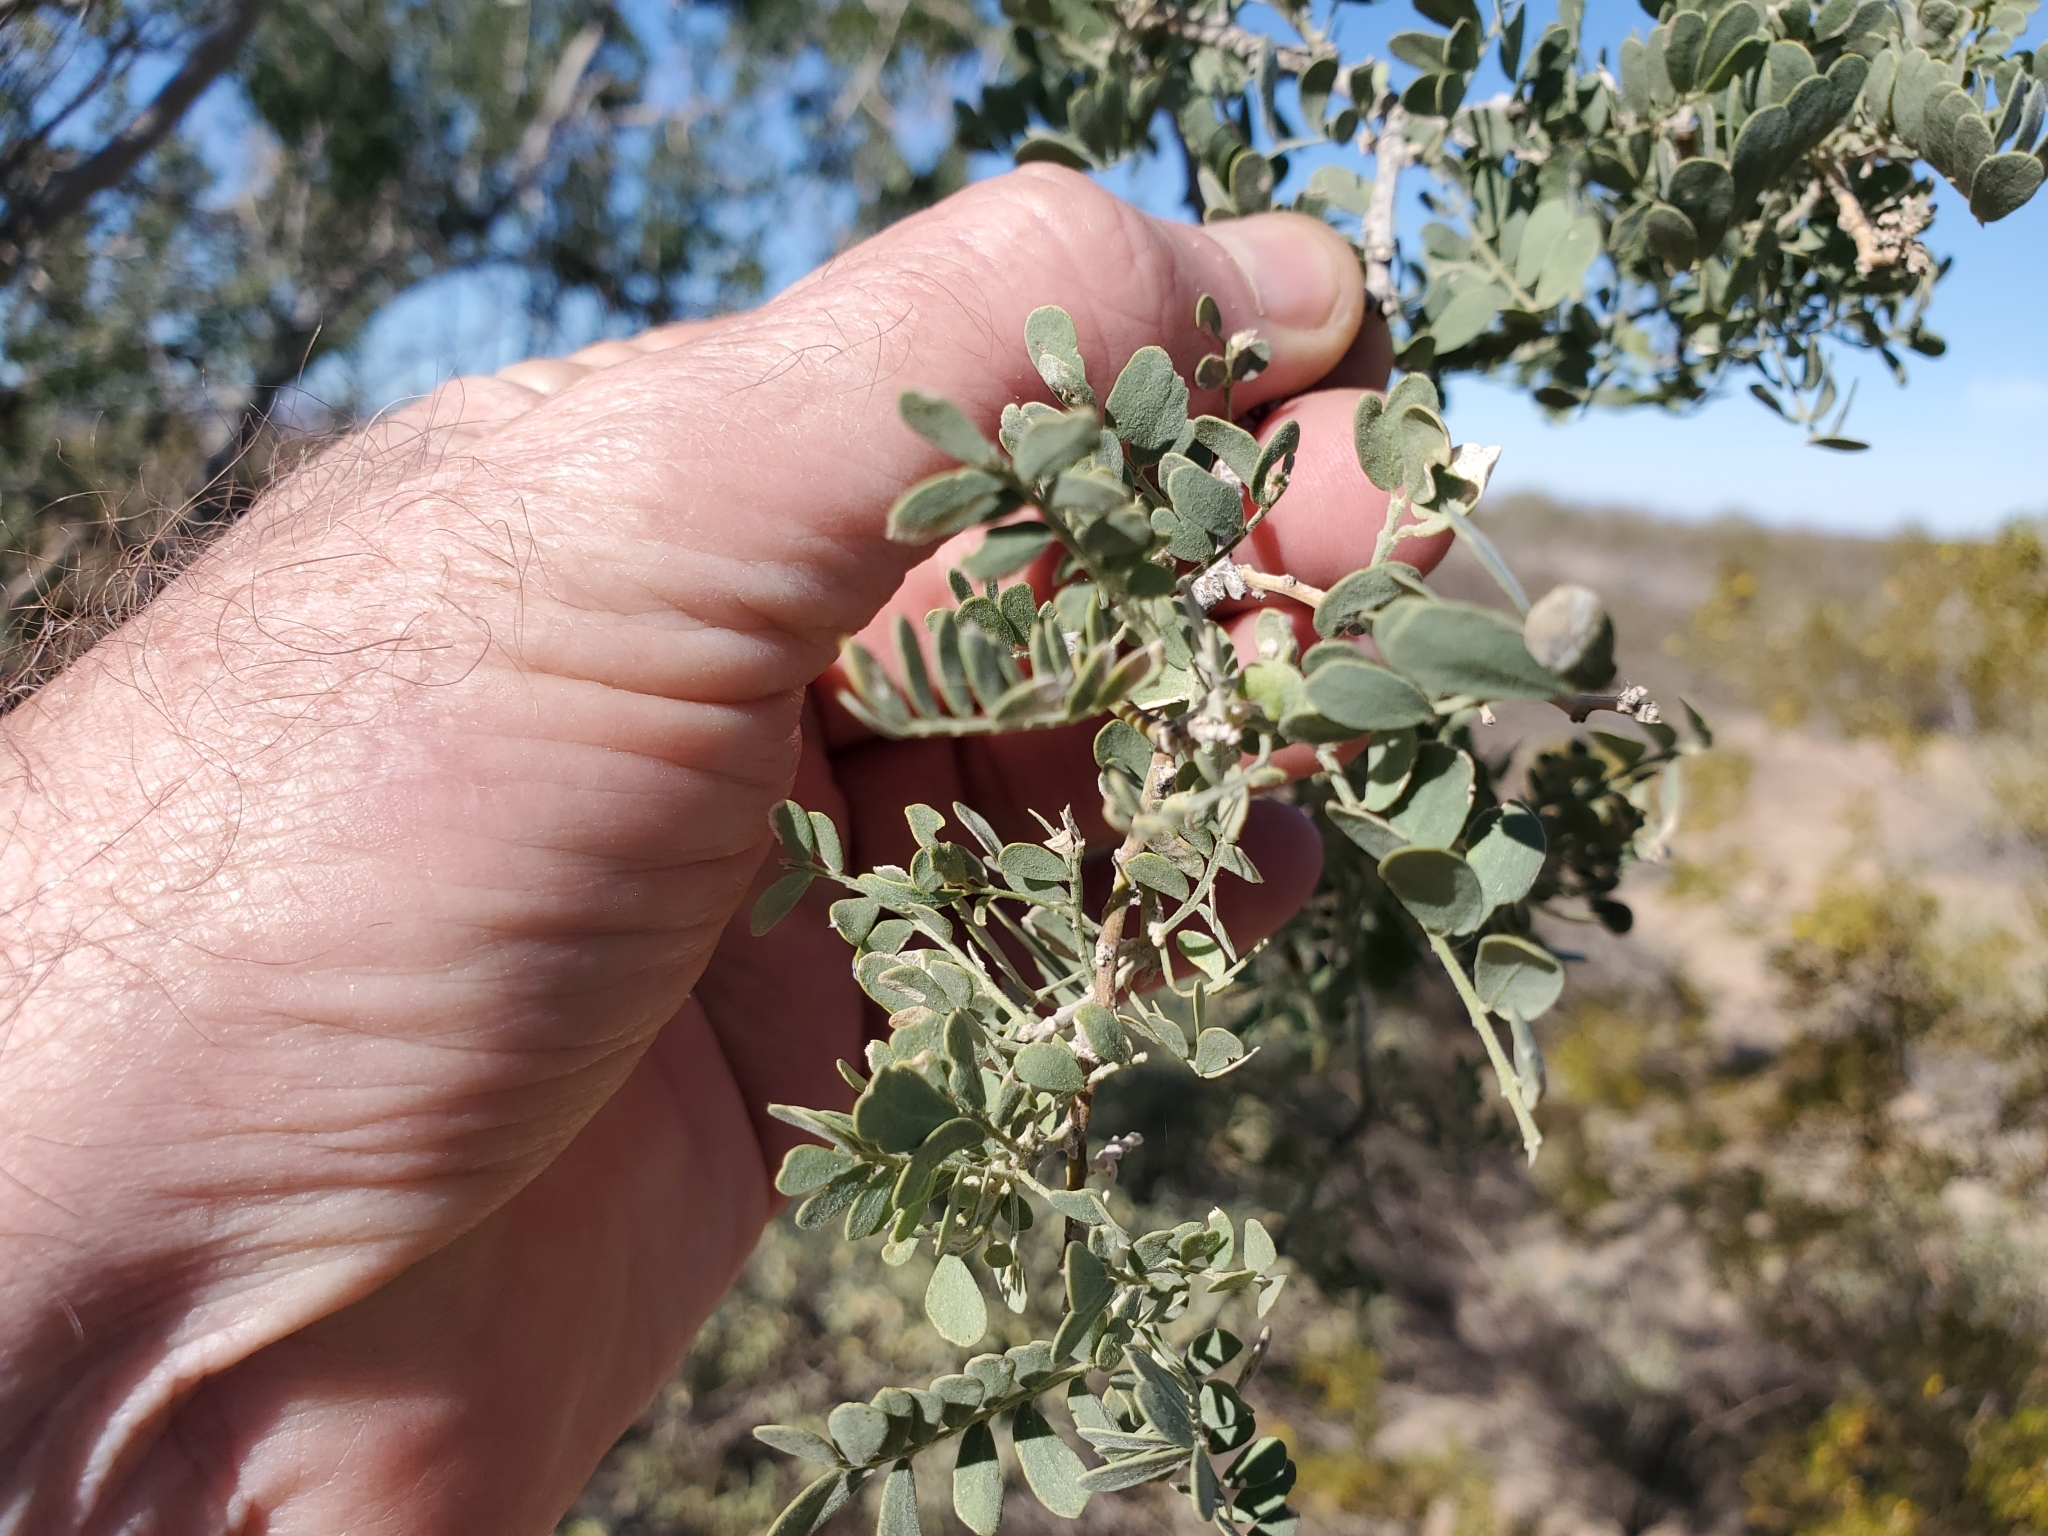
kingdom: Plantae
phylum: Tracheophyta
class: Magnoliopsida
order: Fabales
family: Fabaceae
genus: Olneya
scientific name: Olneya tesota
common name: Desert ironwood
